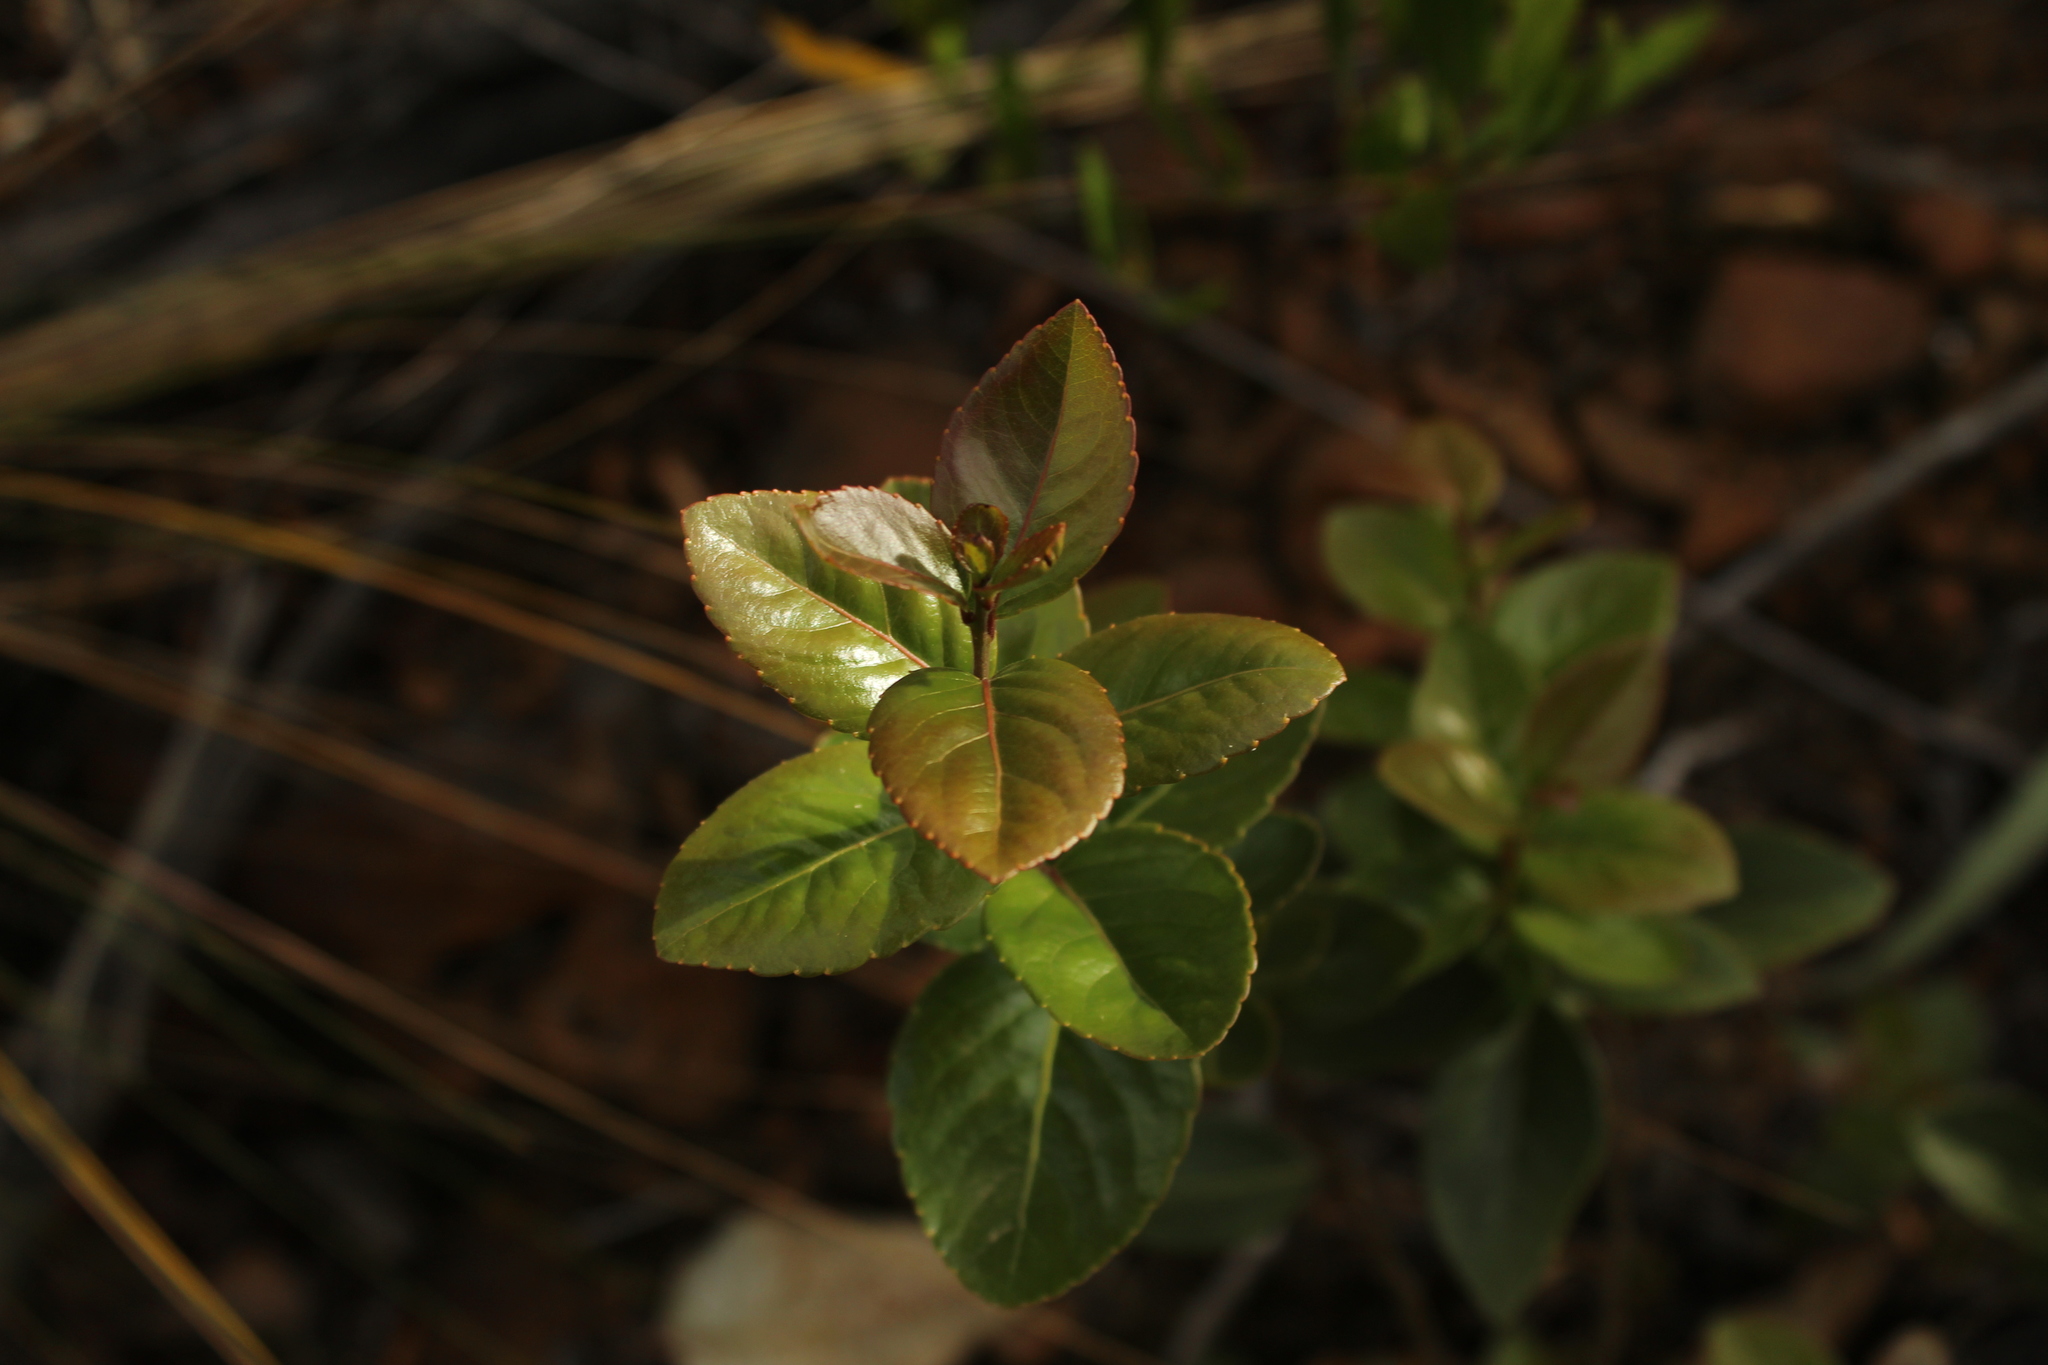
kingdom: Plantae
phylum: Tracheophyta
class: Magnoliopsida
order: Malpighiales
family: Salicaceae
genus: Xylosma
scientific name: Xylosma spiculifera
